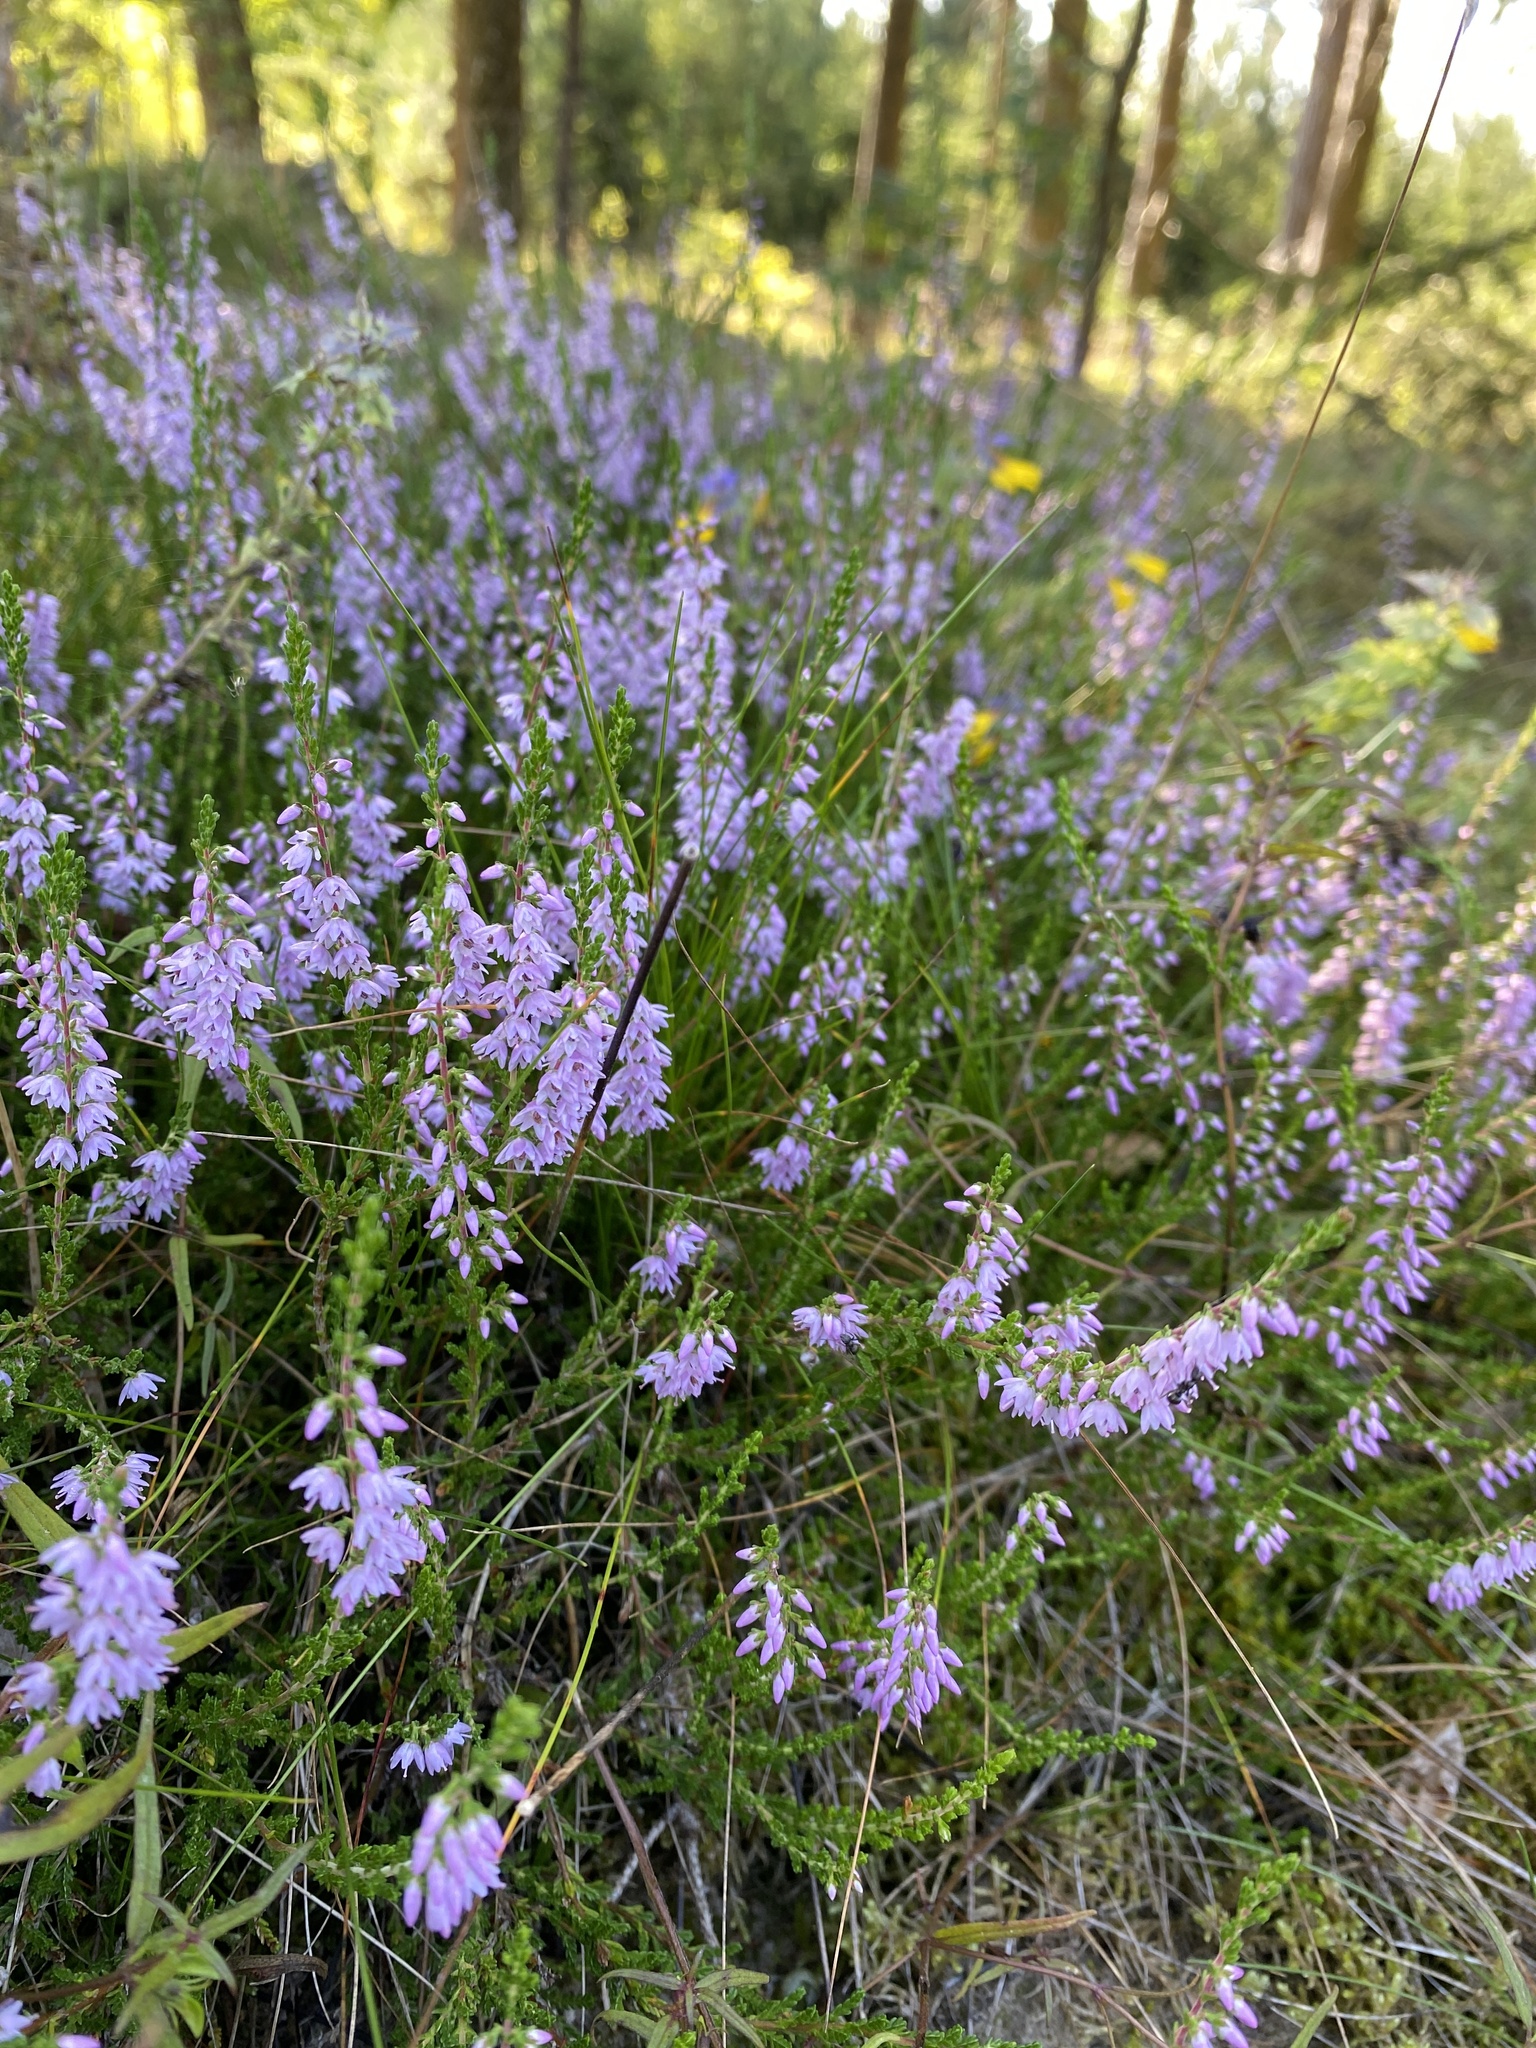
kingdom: Plantae
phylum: Tracheophyta
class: Magnoliopsida
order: Ericales
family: Ericaceae
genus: Calluna
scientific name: Calluna vulgaris
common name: Heather
